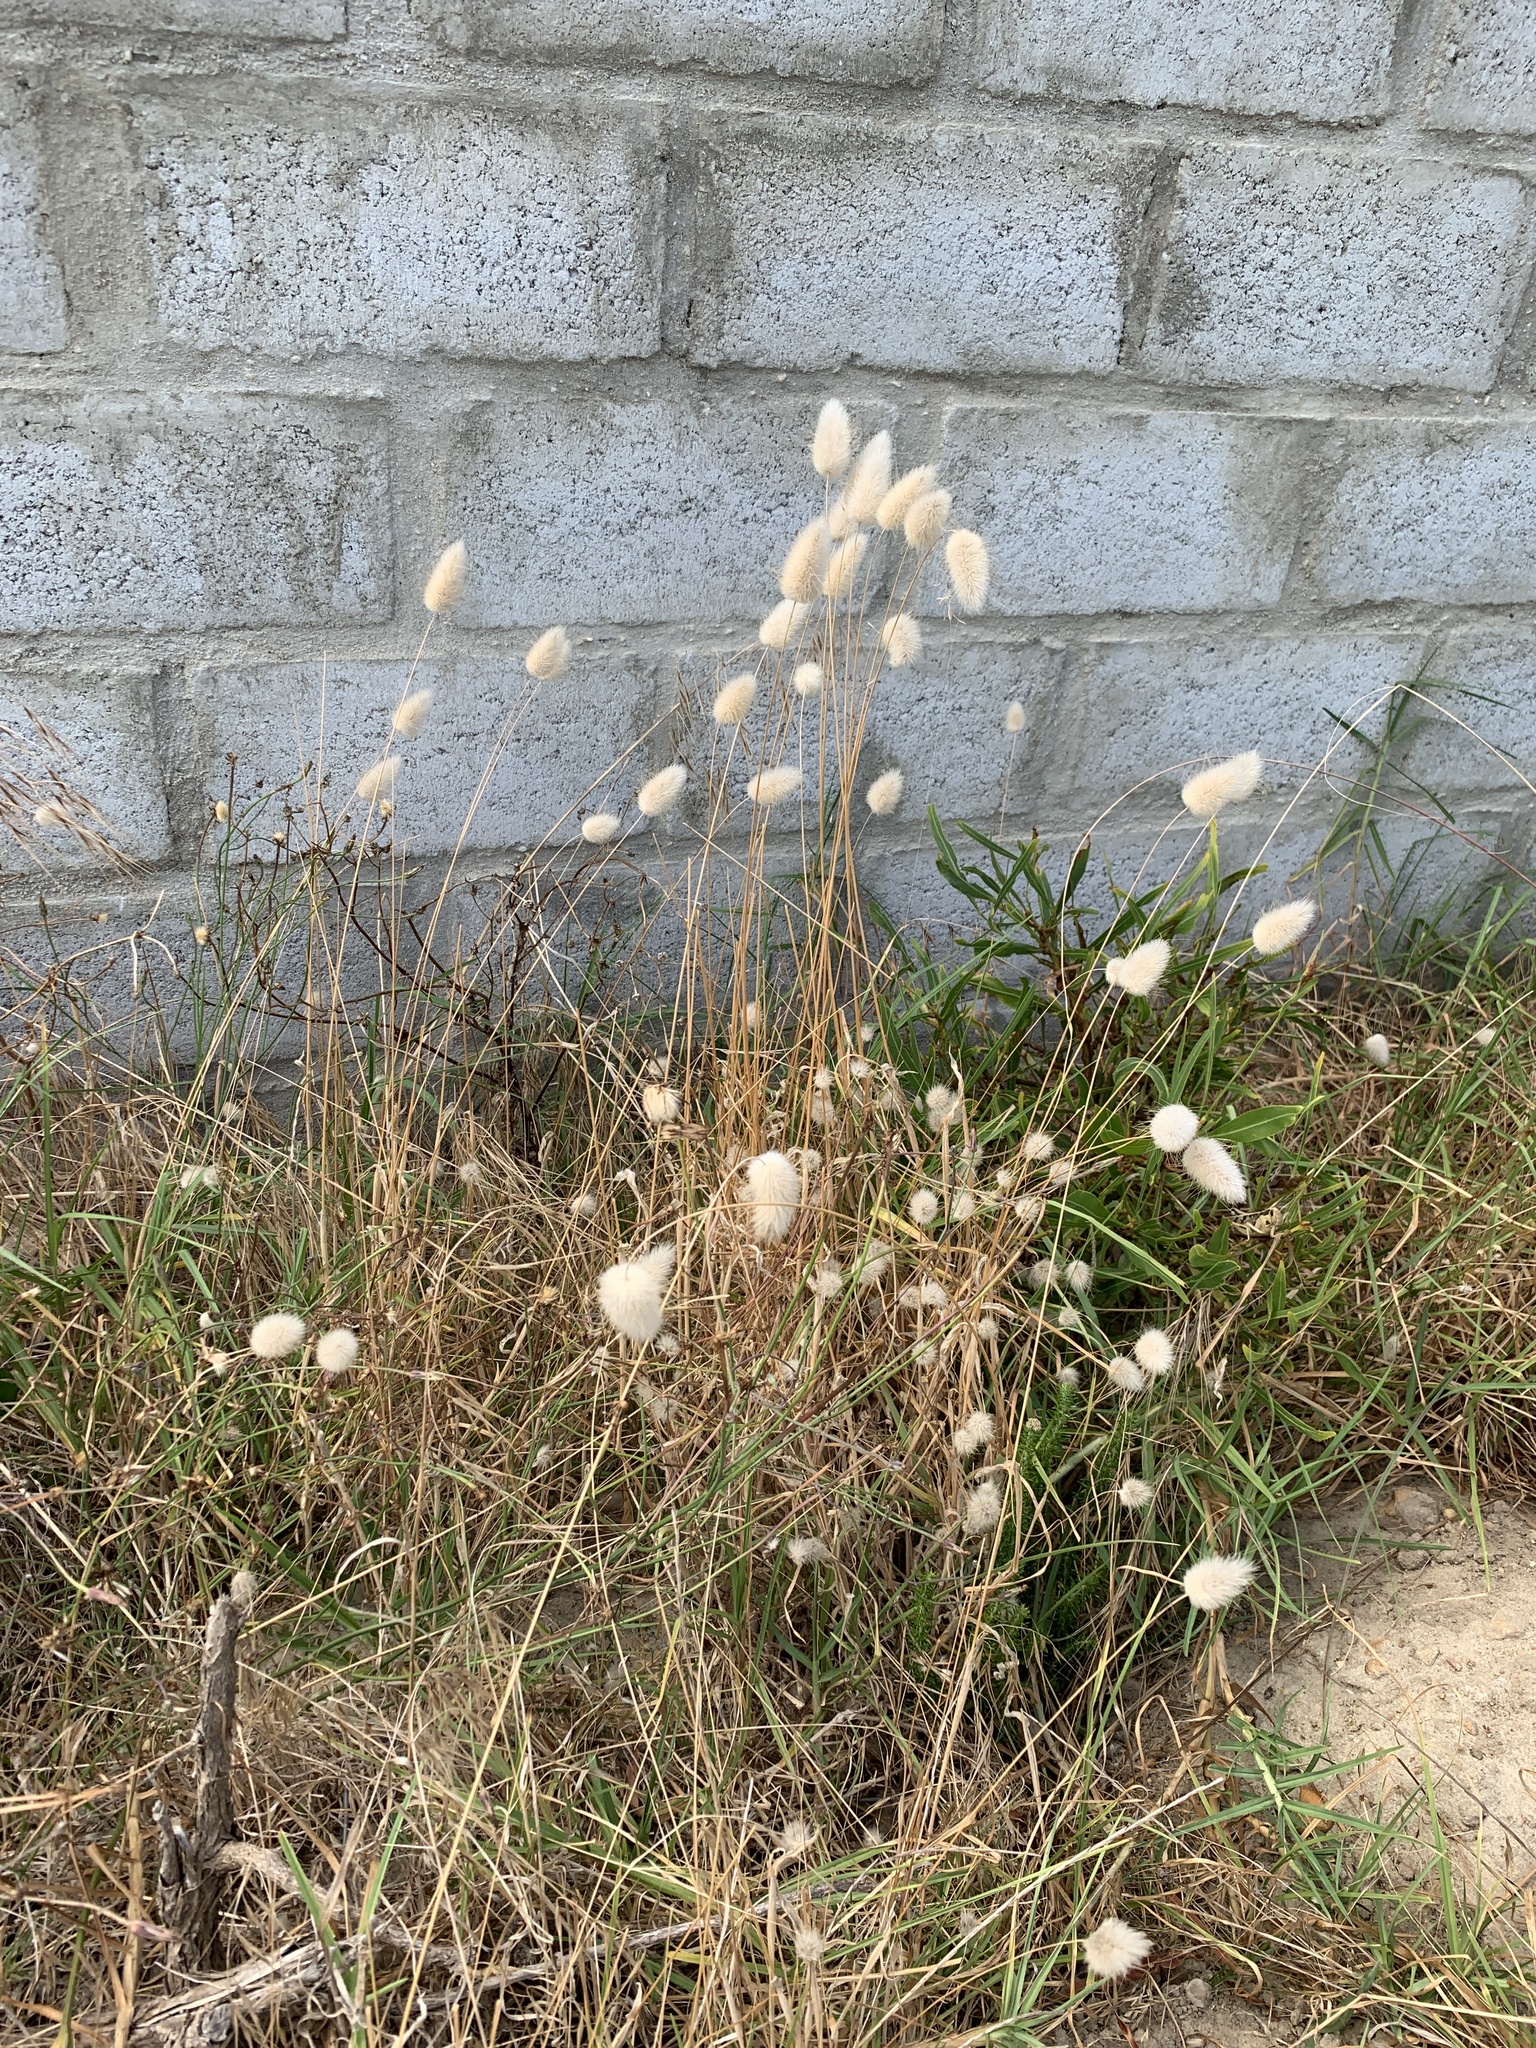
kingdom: Plantae
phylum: Tracheophyta
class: Liliopsida
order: Poales
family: Poaceae
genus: Lagurus
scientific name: Lagurus ovatus
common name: Hare's-tail
